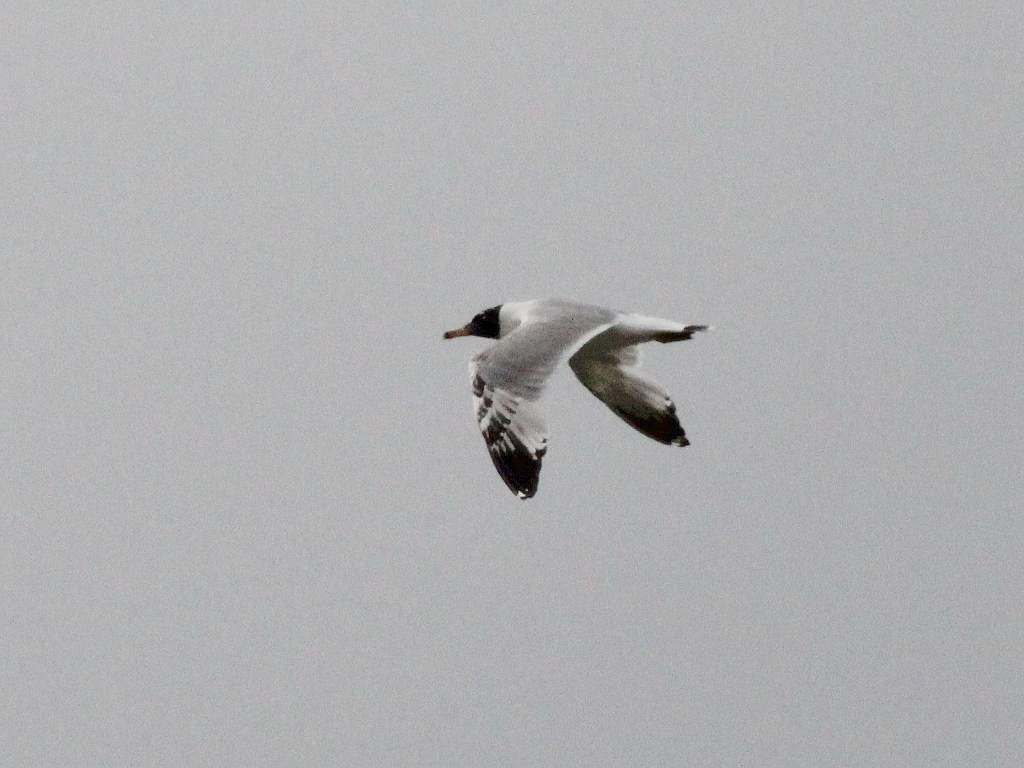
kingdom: Animalia
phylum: Chordata
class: Aves
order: Charadriiformes
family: Laridae
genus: Ichthyaetus
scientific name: Ichthyaetus ichthyaetus
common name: Pallas's gull
